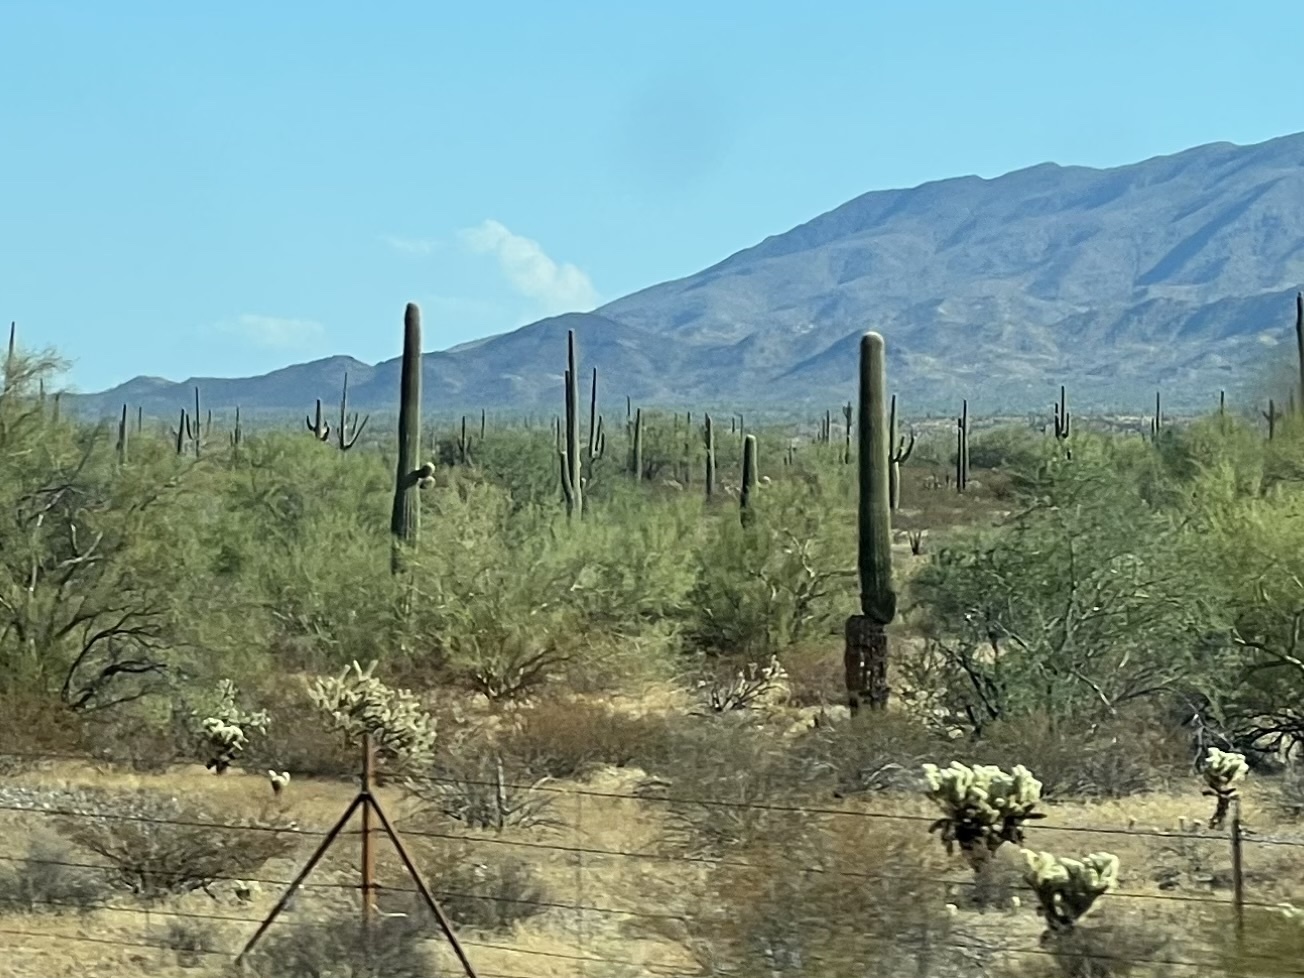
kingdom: Plantae
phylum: Tracheophyta
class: Magnoliopsida
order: Caryophyllales
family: Cactaceae
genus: Carnegiea
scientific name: Carnegiea gigantea
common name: Saguaro
